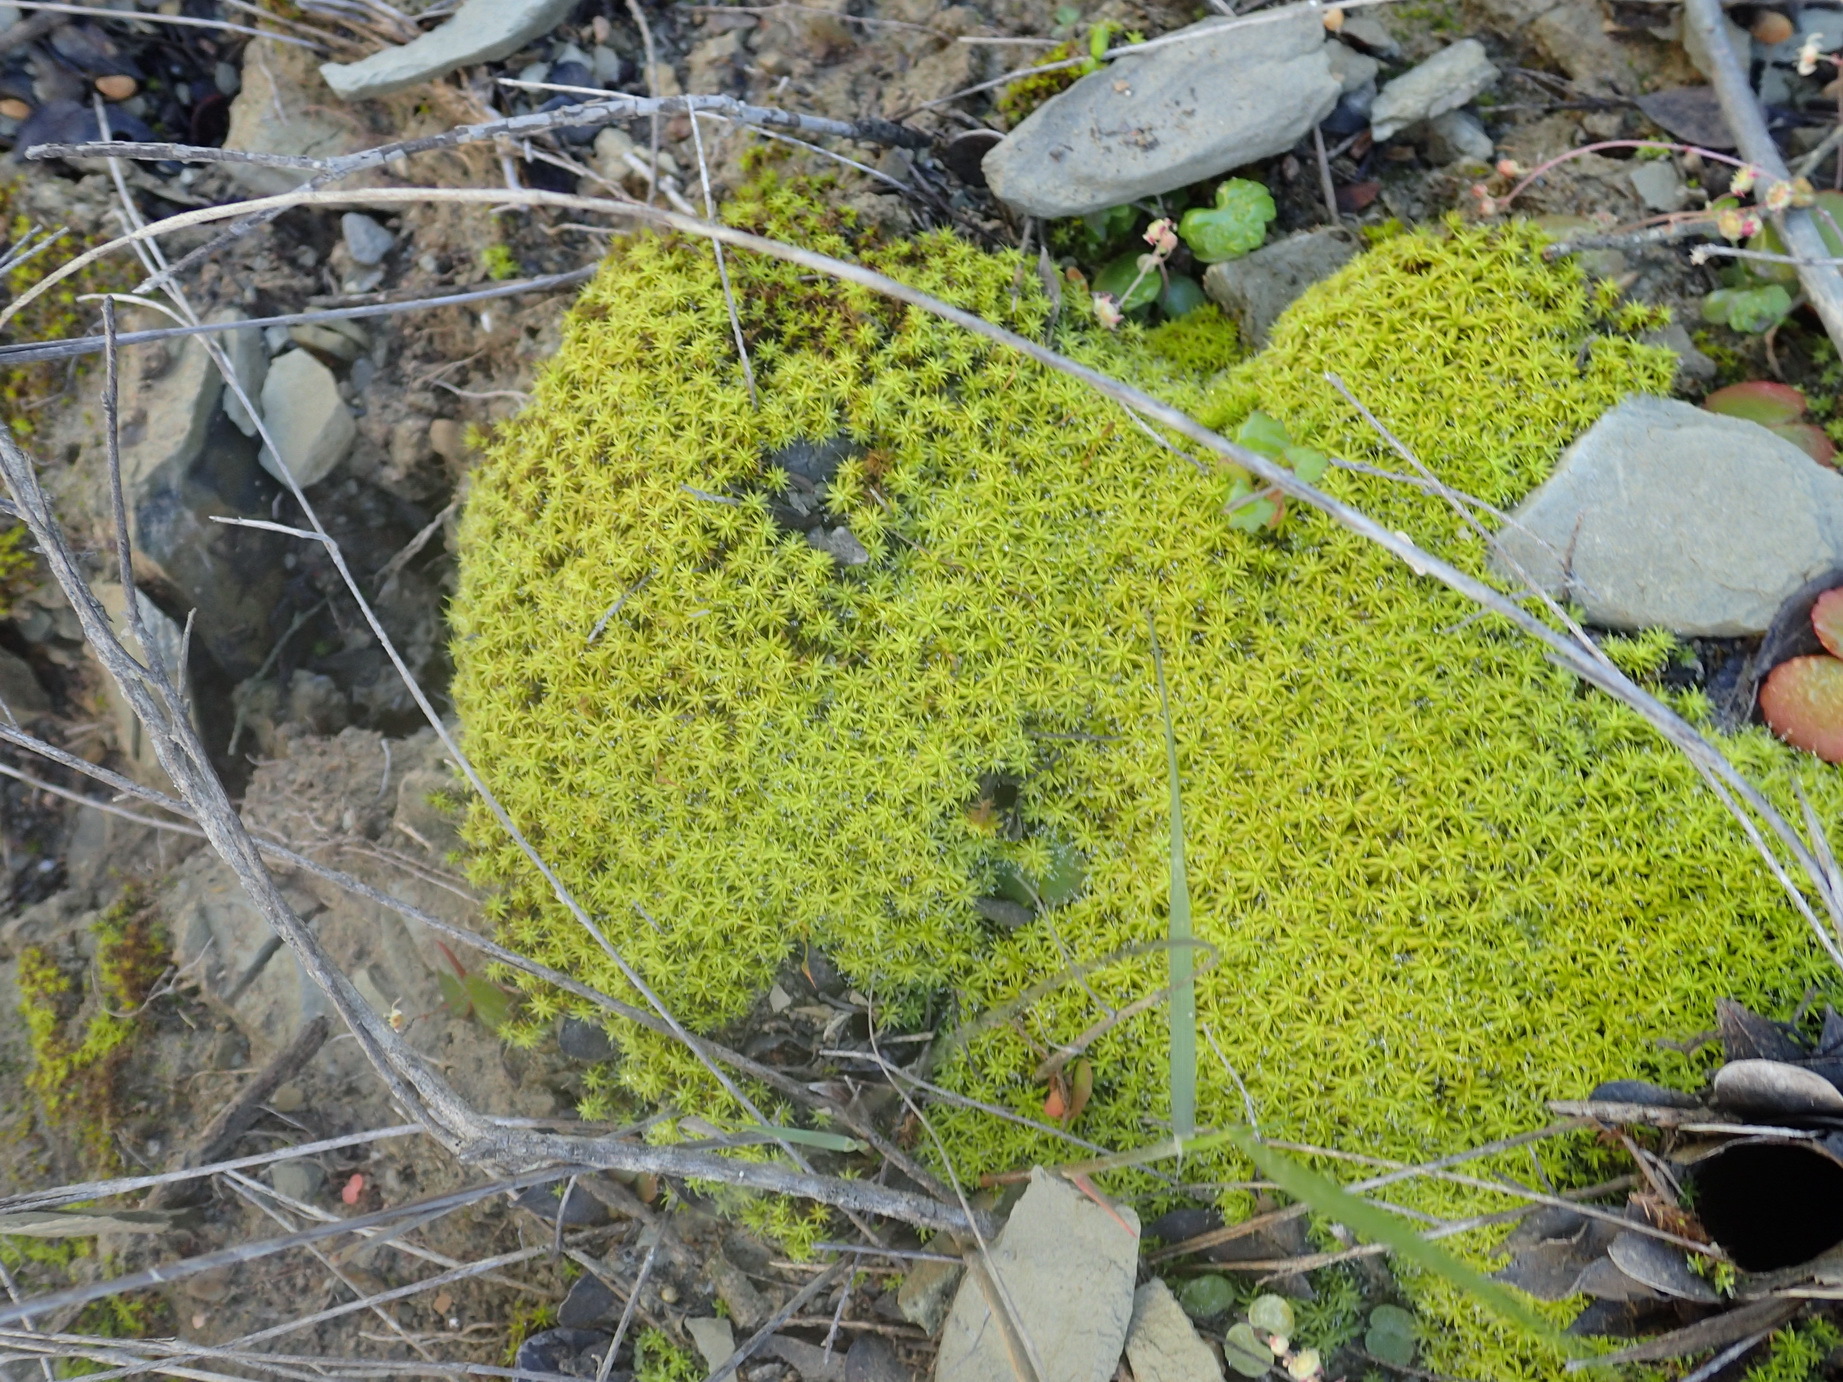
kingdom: Plantae
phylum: Bryophyta
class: Bryopsida
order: Pottiales
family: Pottiaceae
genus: Pseudocrossidium
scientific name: Pseudocrossidium crinitum
